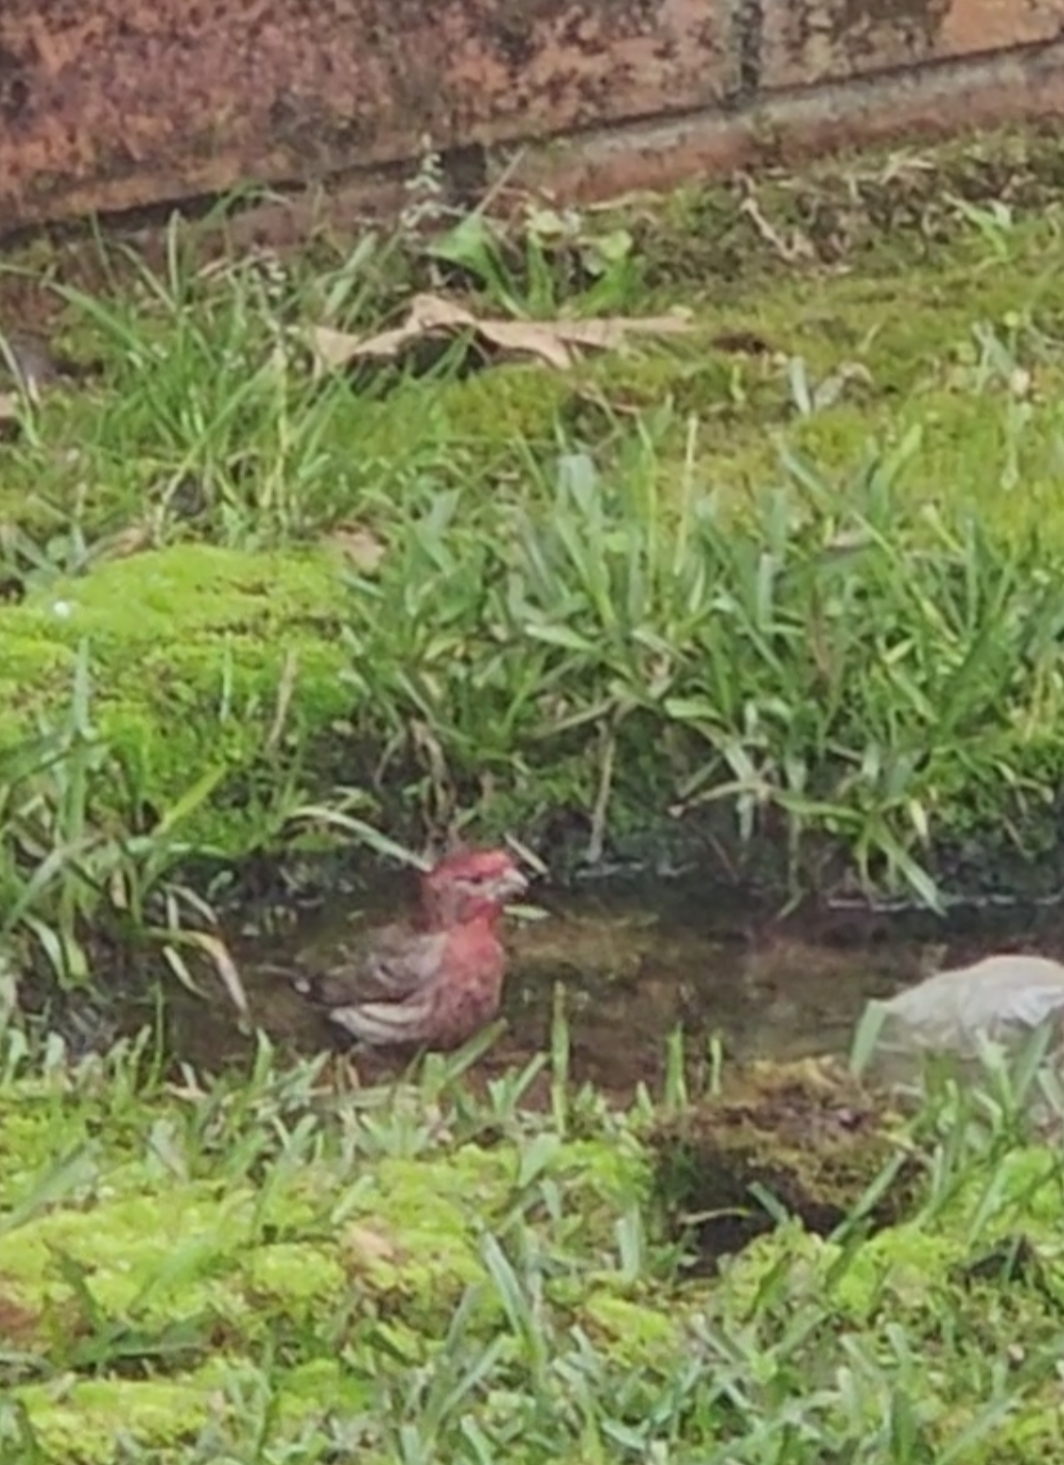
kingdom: Animalia
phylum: Chordata
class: Aves
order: Passeriformes
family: Fringillidae
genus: Haemorhous
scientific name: Haemorhous mexicanus
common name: House finch
